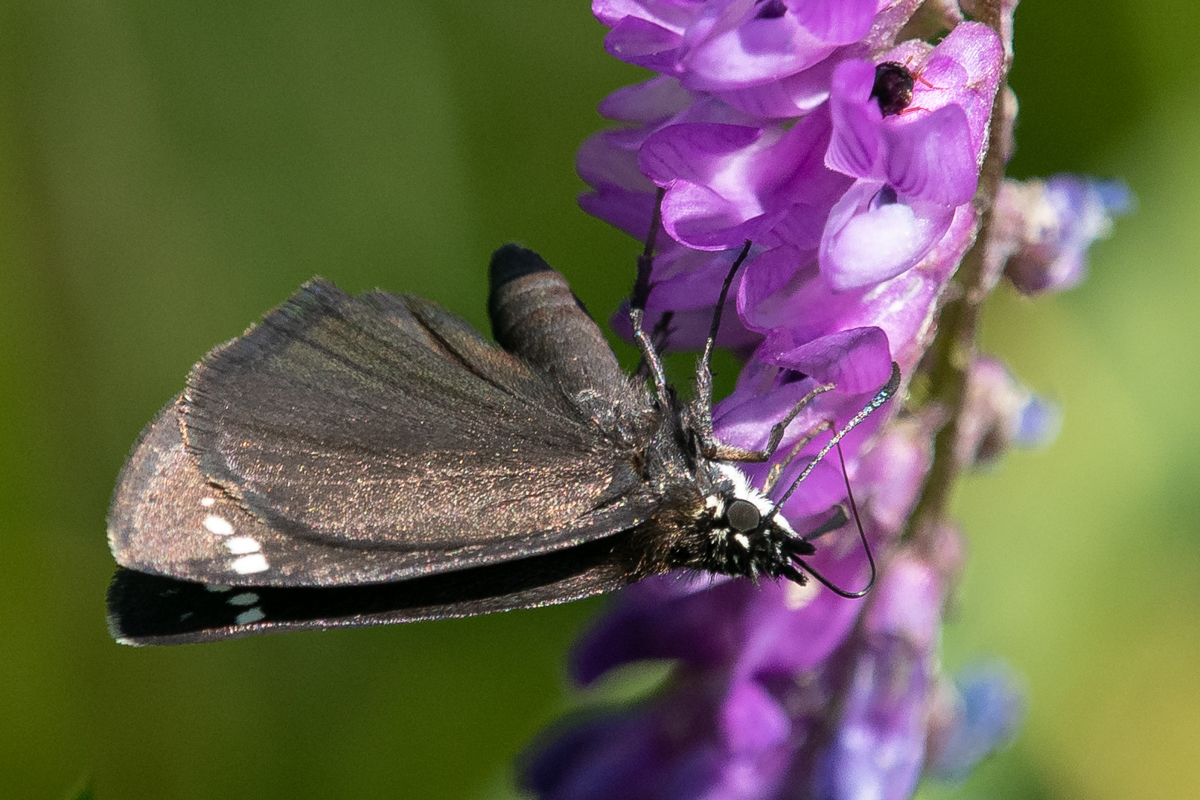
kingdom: Animalia
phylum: Arthropoda
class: Insecta
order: Lepidoptera
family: Hesperiidae
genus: Pholisora
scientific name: Pholisora catullus
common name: Common sootywing
